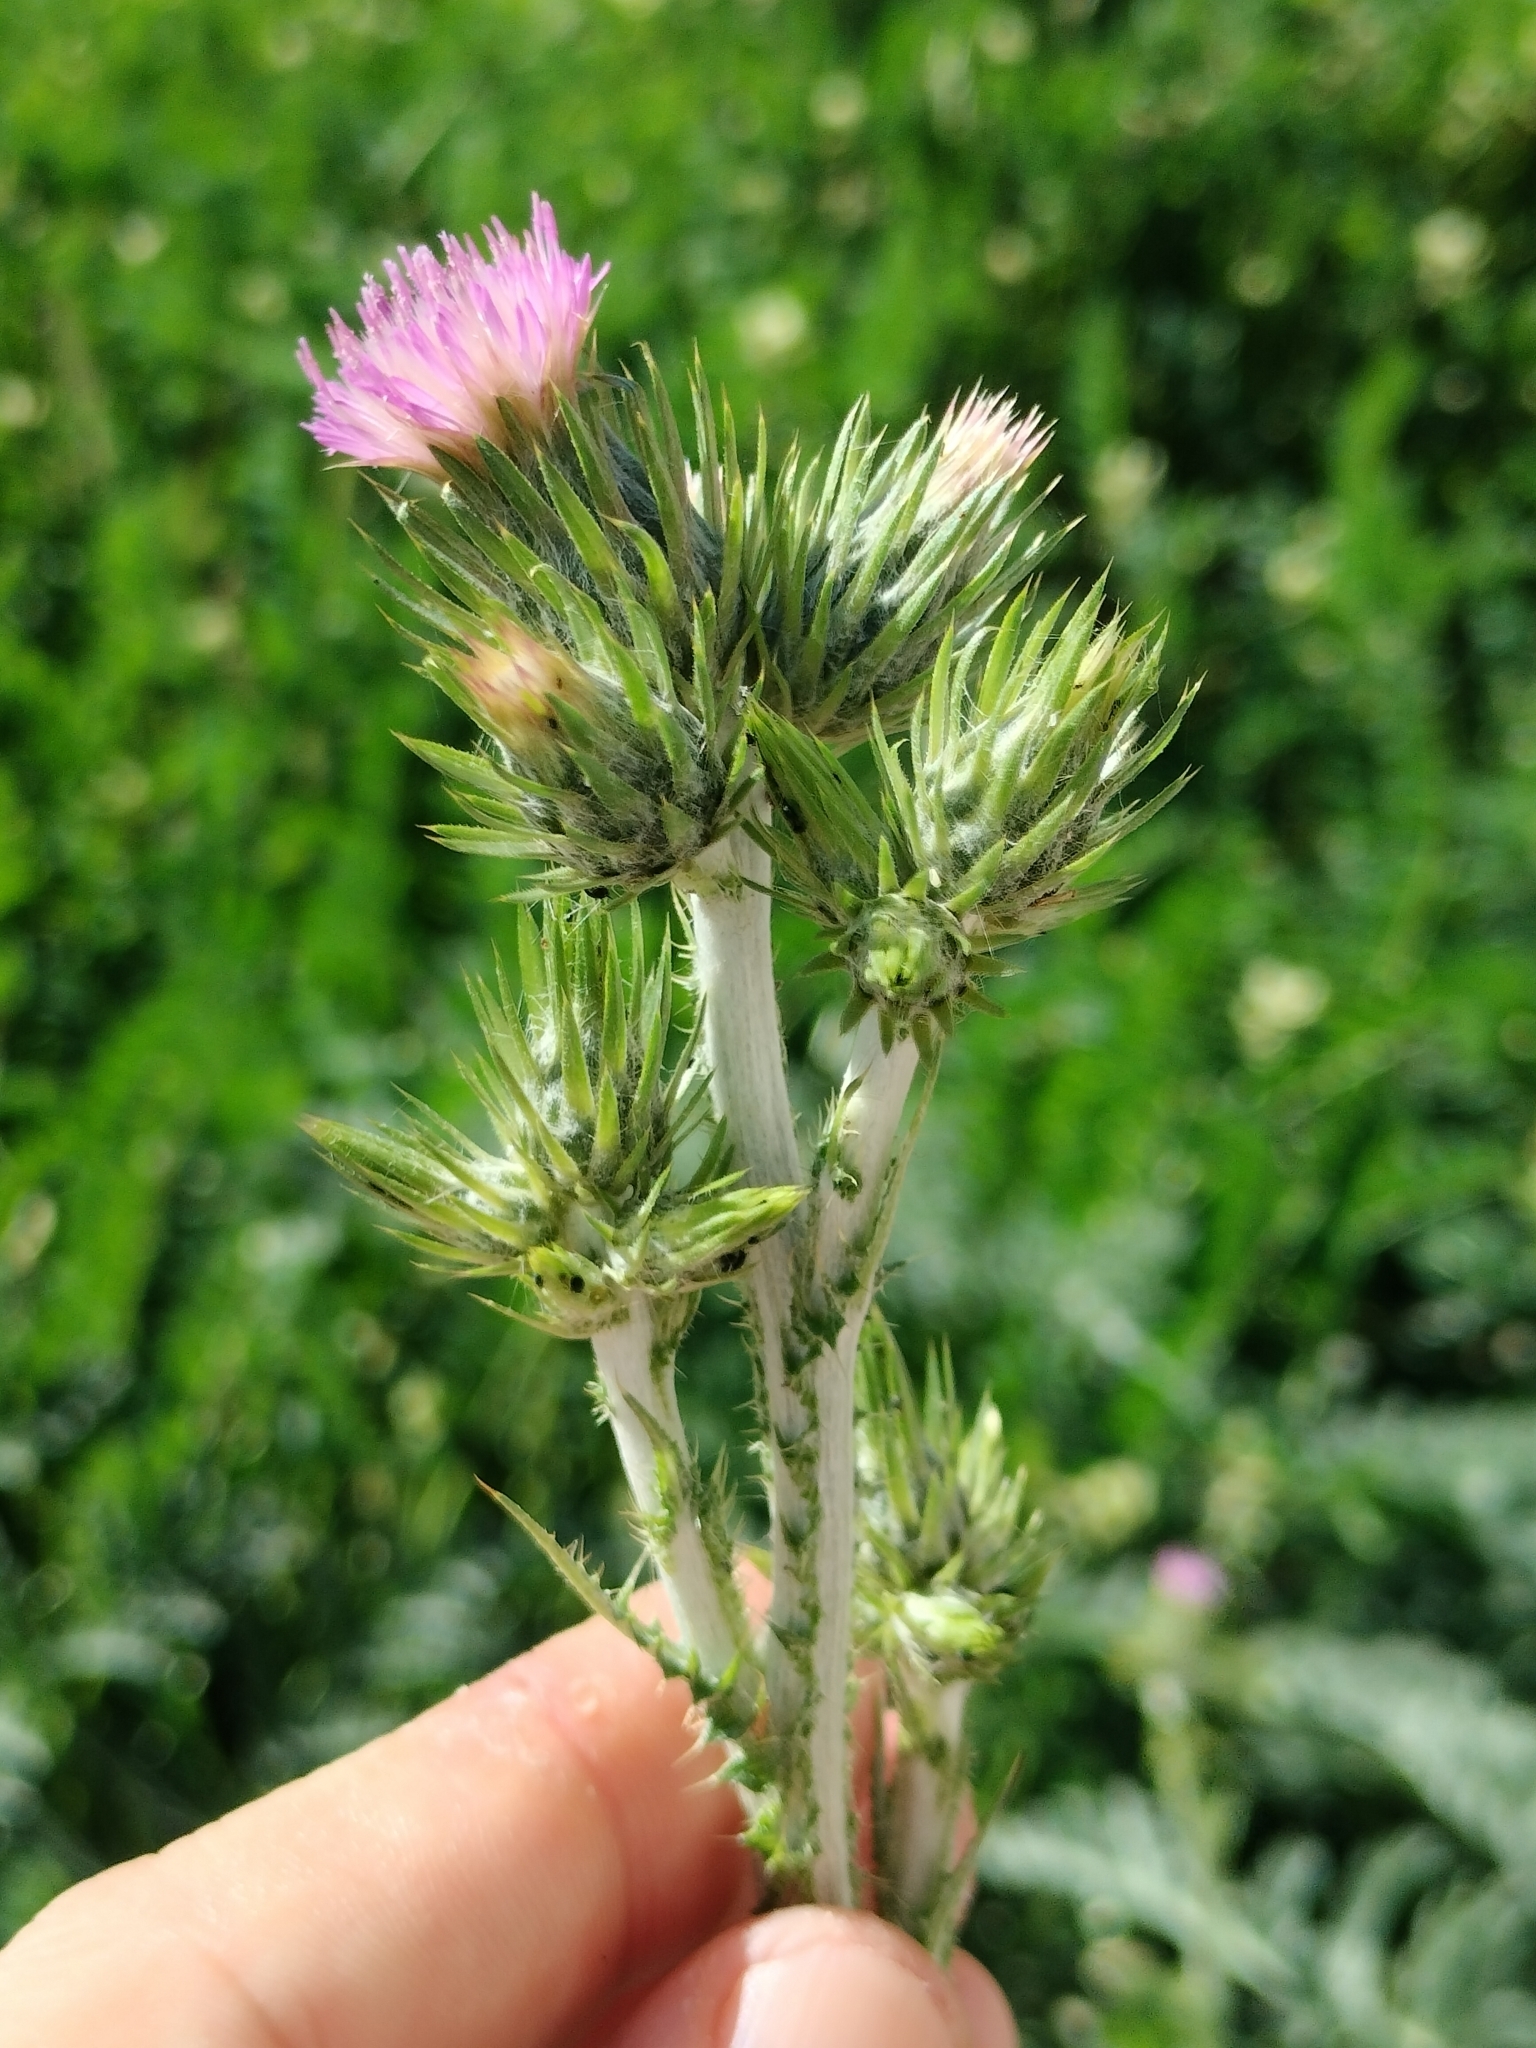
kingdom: Plantae
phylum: Tracheophyta
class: Magnoliopsida
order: Asterales
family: Asteraceae
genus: Carduus
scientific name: Carduus pycnocephalus
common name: Plymouth thistle
